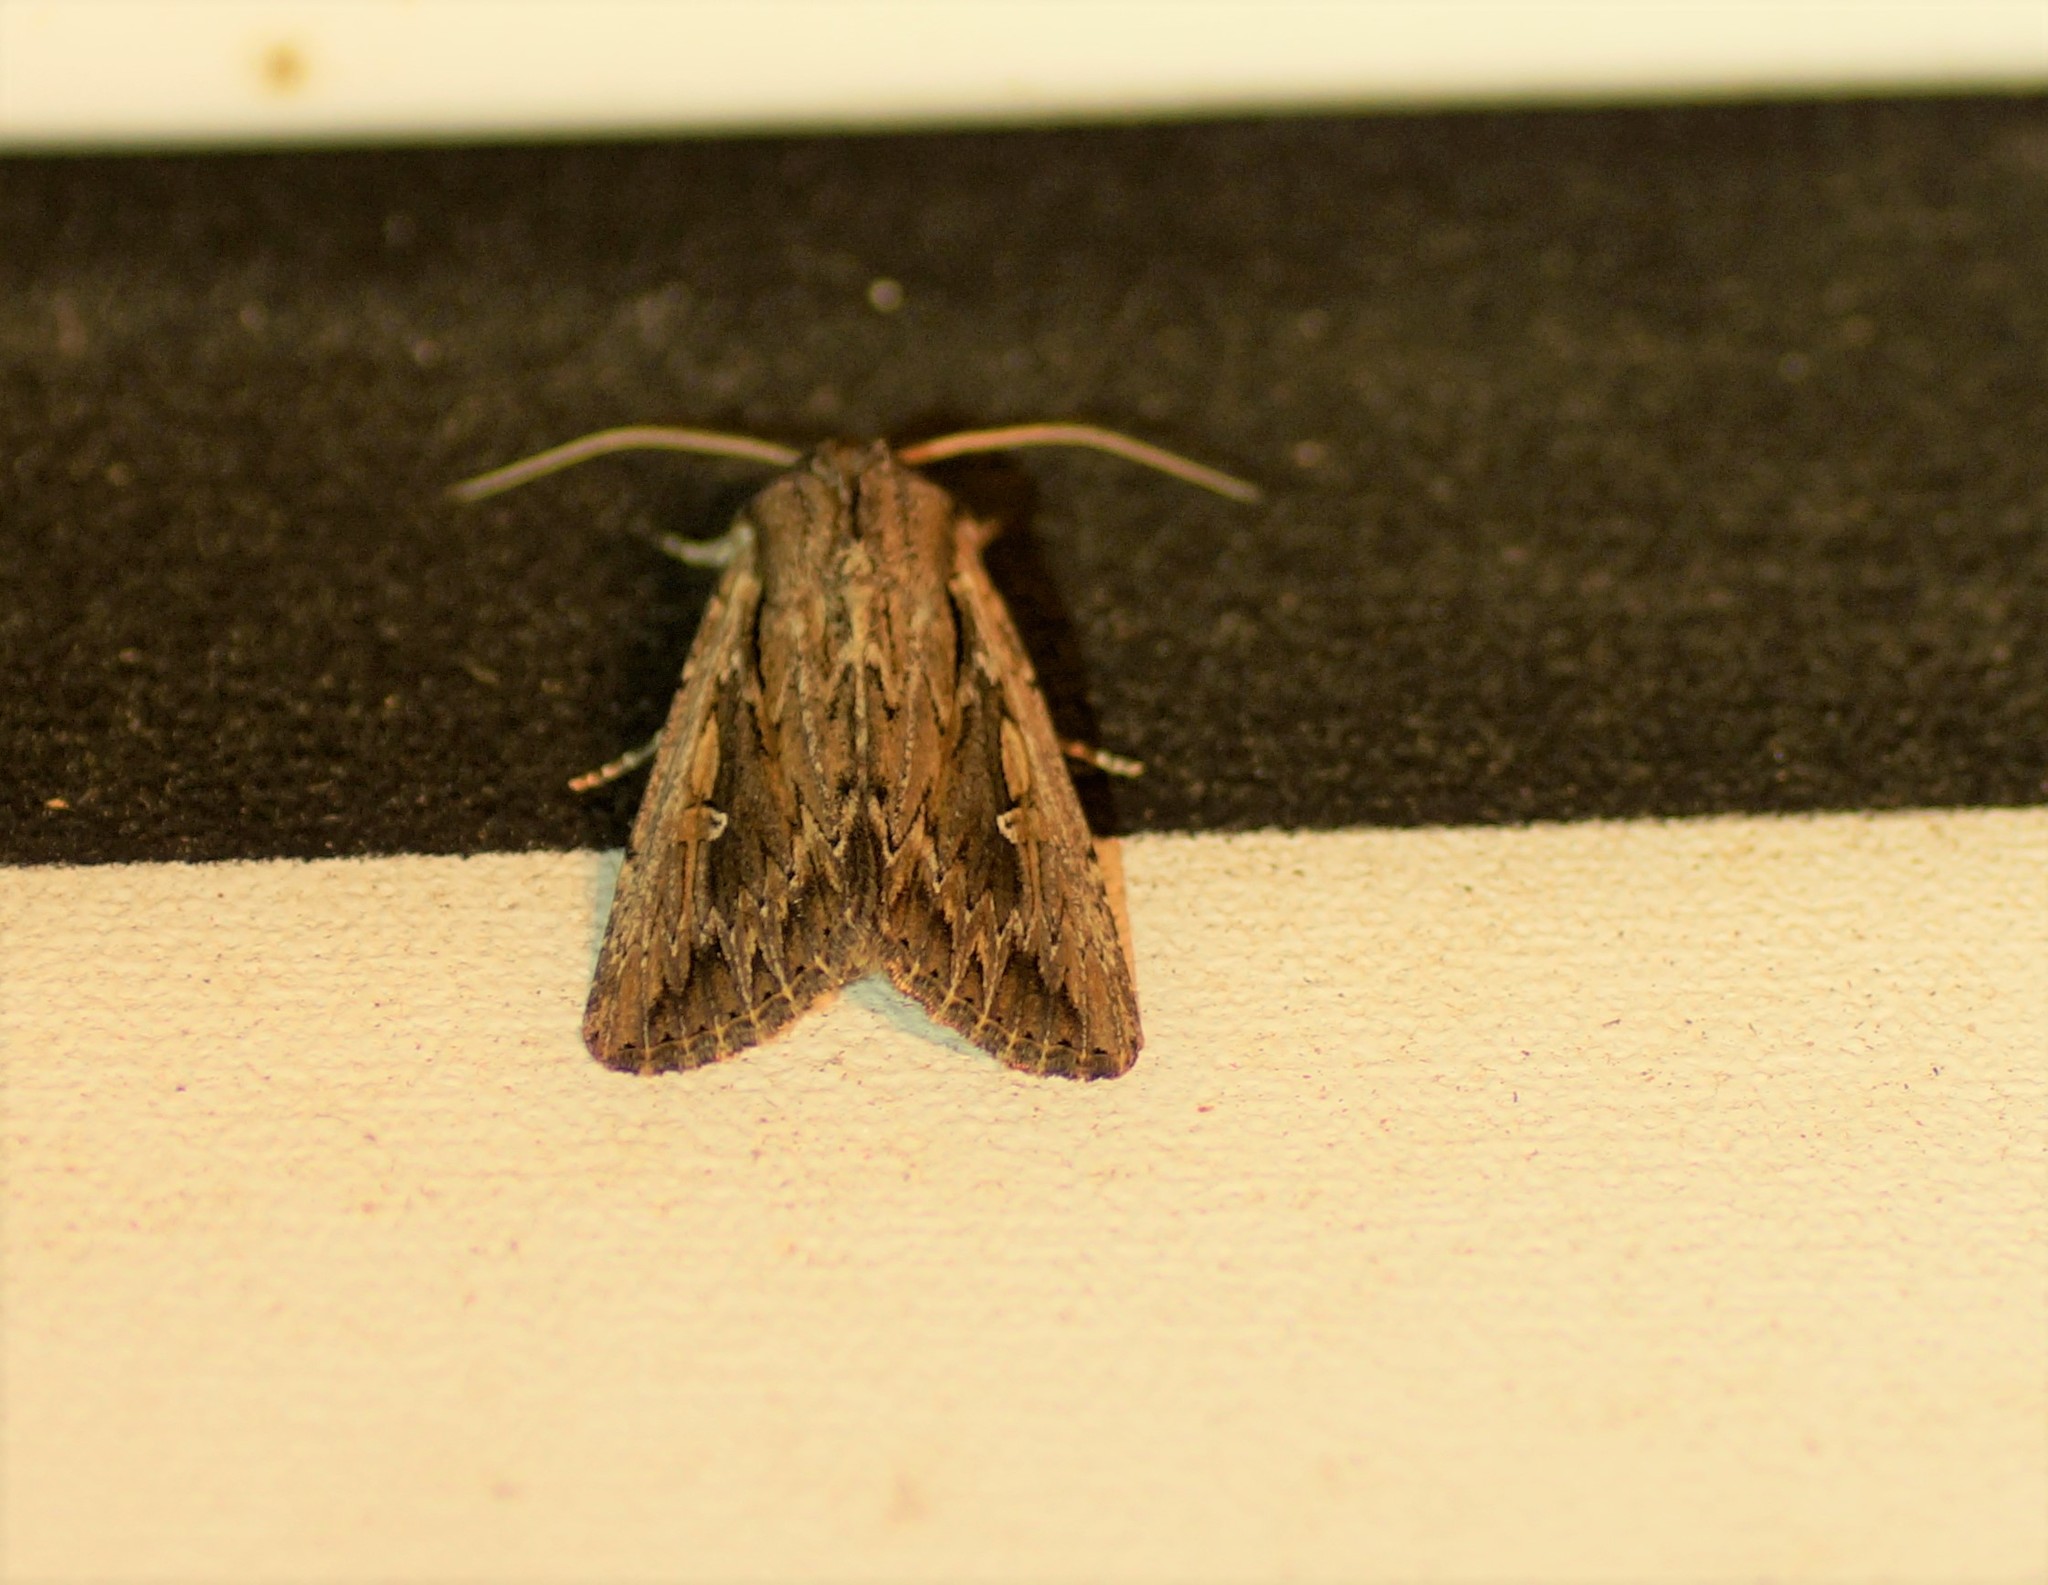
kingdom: Animalia
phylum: Arthropoda
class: Insecta
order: Lepidoptera
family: Noctuidae
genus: Persectania
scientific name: Persectania ewingii
